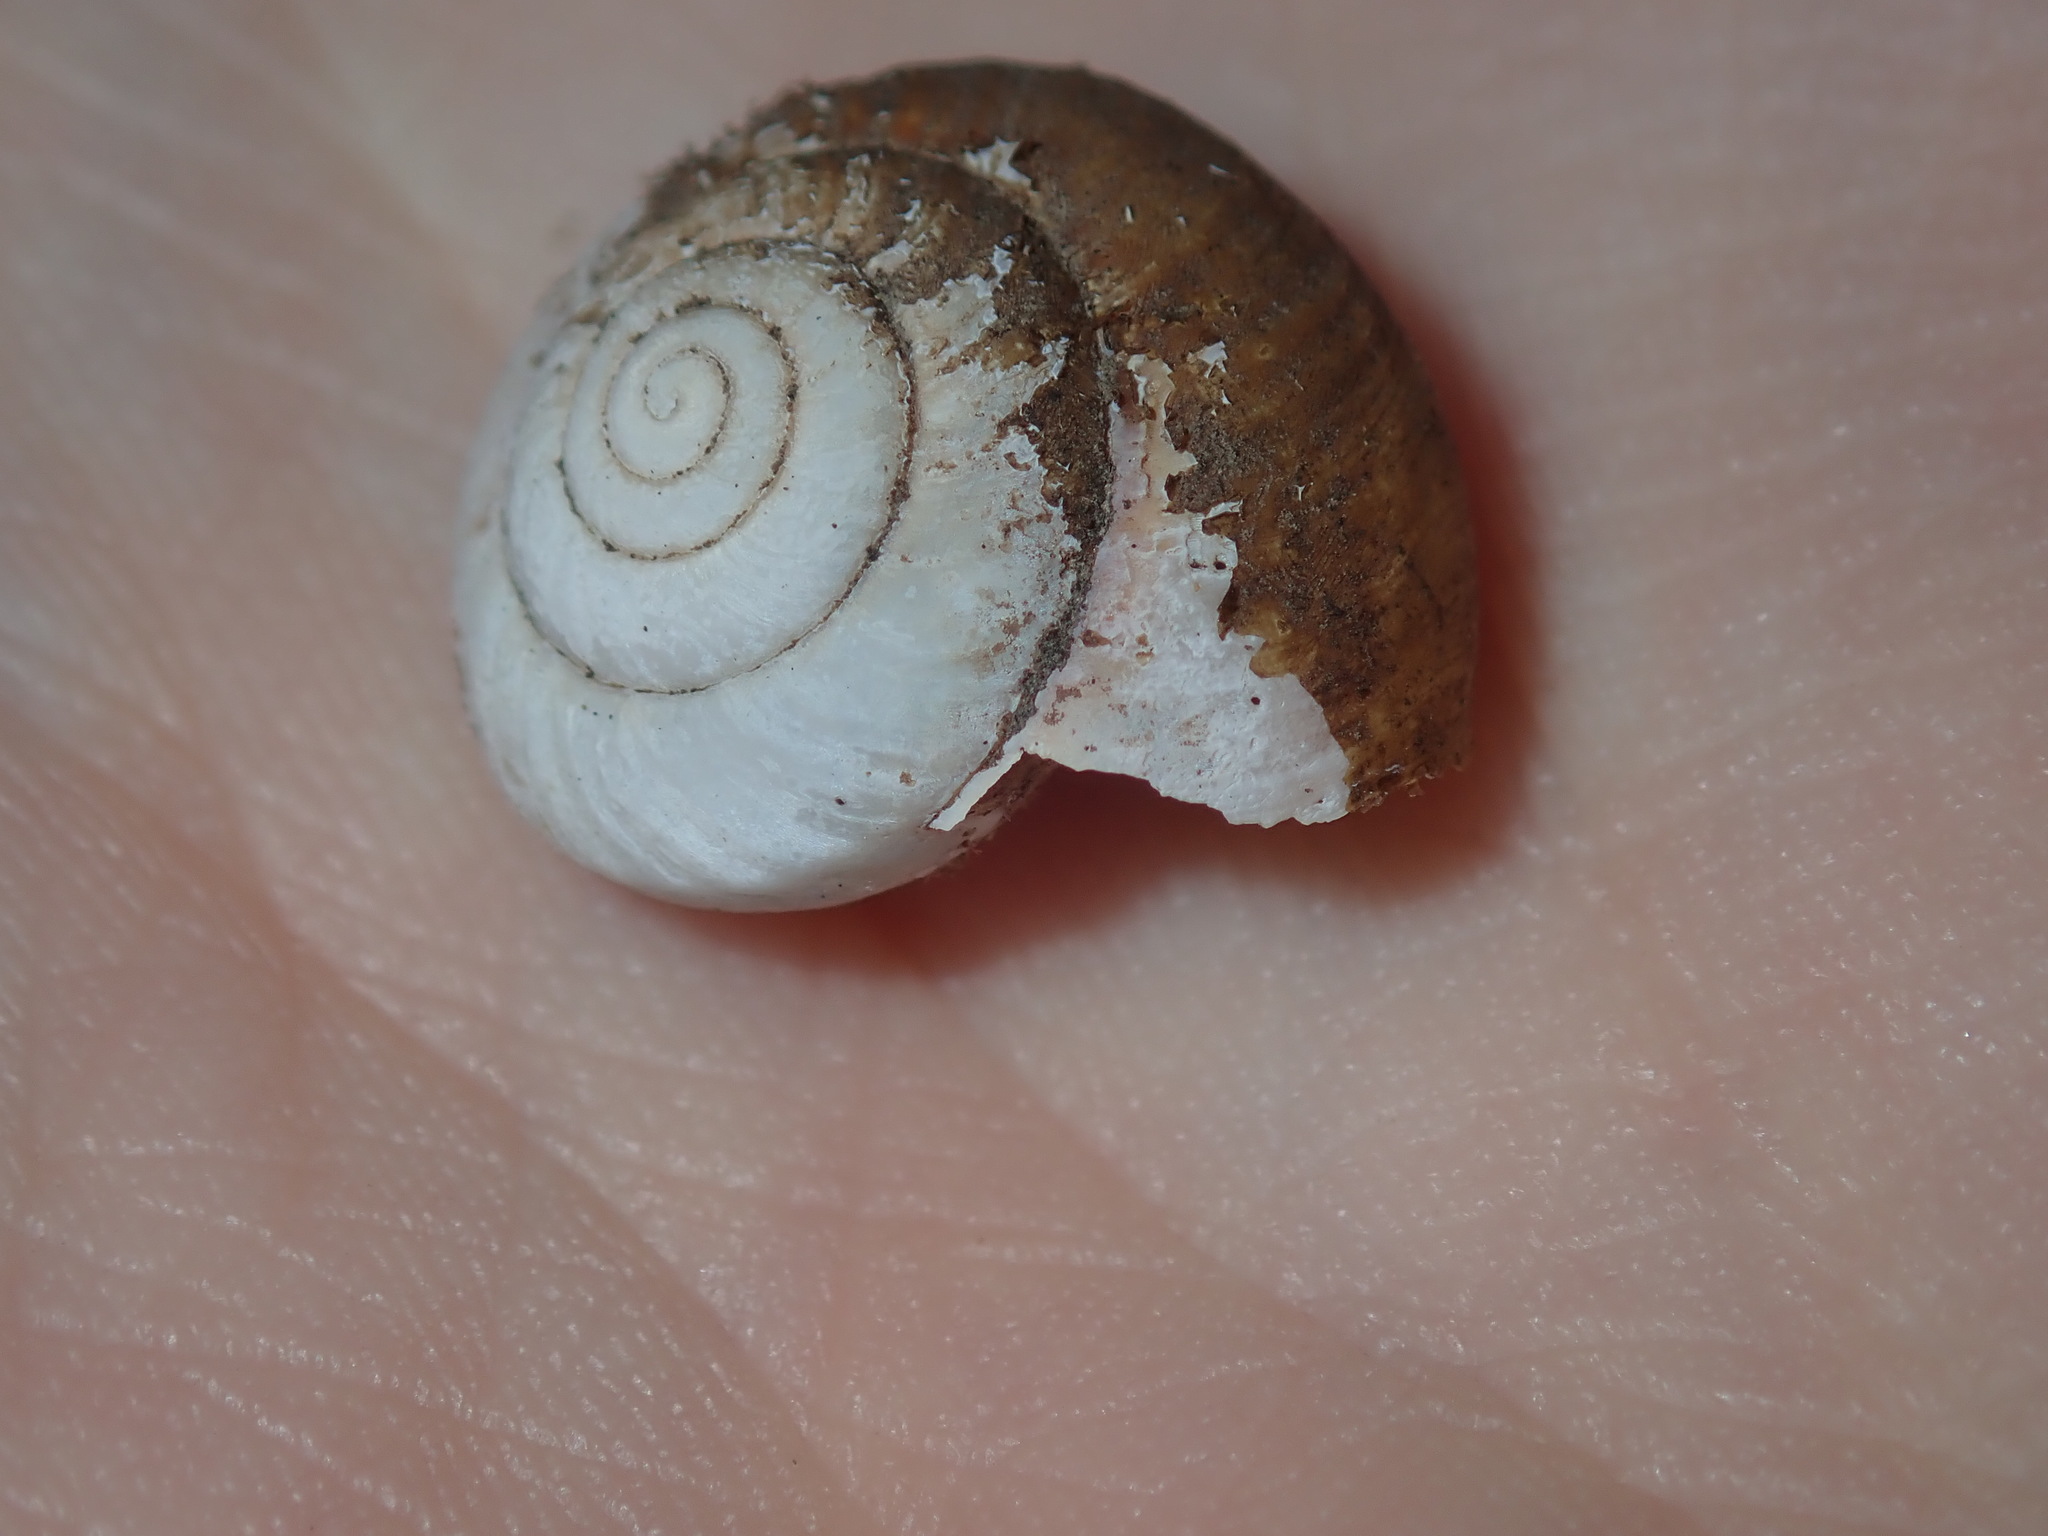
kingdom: Animalia
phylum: Mollusca
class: Gastropoda
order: Stylommatophora
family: Camaenidae
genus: Sauroconcha
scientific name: Sauroconcha sheai
